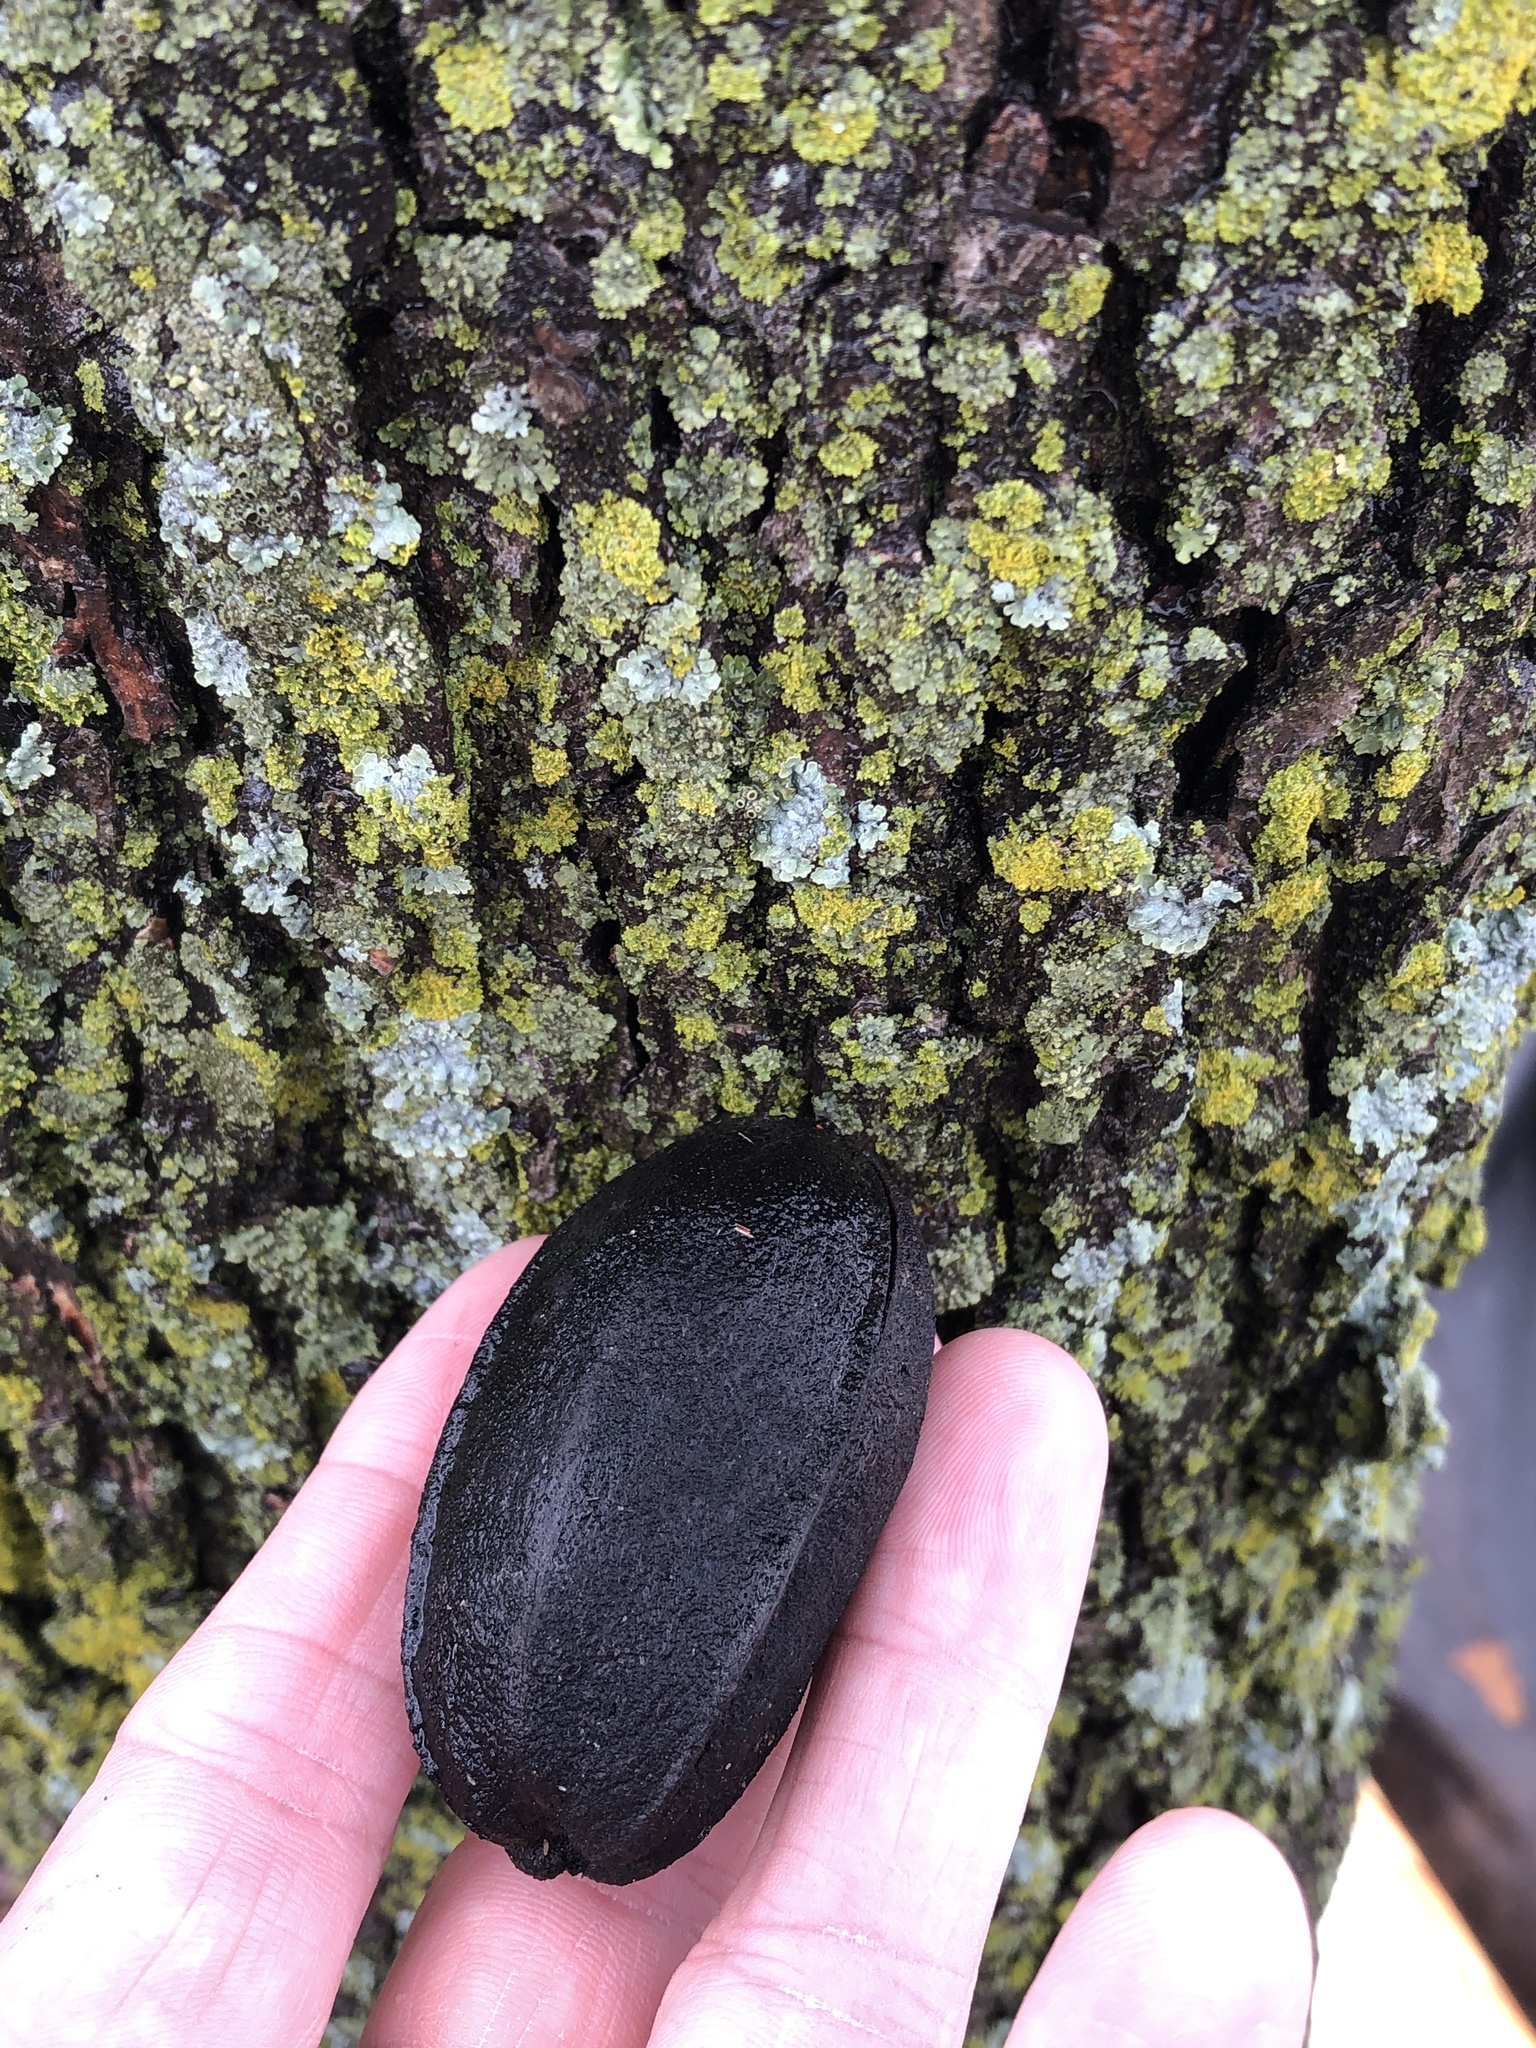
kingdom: Plantae
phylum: Tracheophyta
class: Magnoliopsida
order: Fagales
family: Juglandaceae
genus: Carya
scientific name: Carya illinoinensis
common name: Pecan
